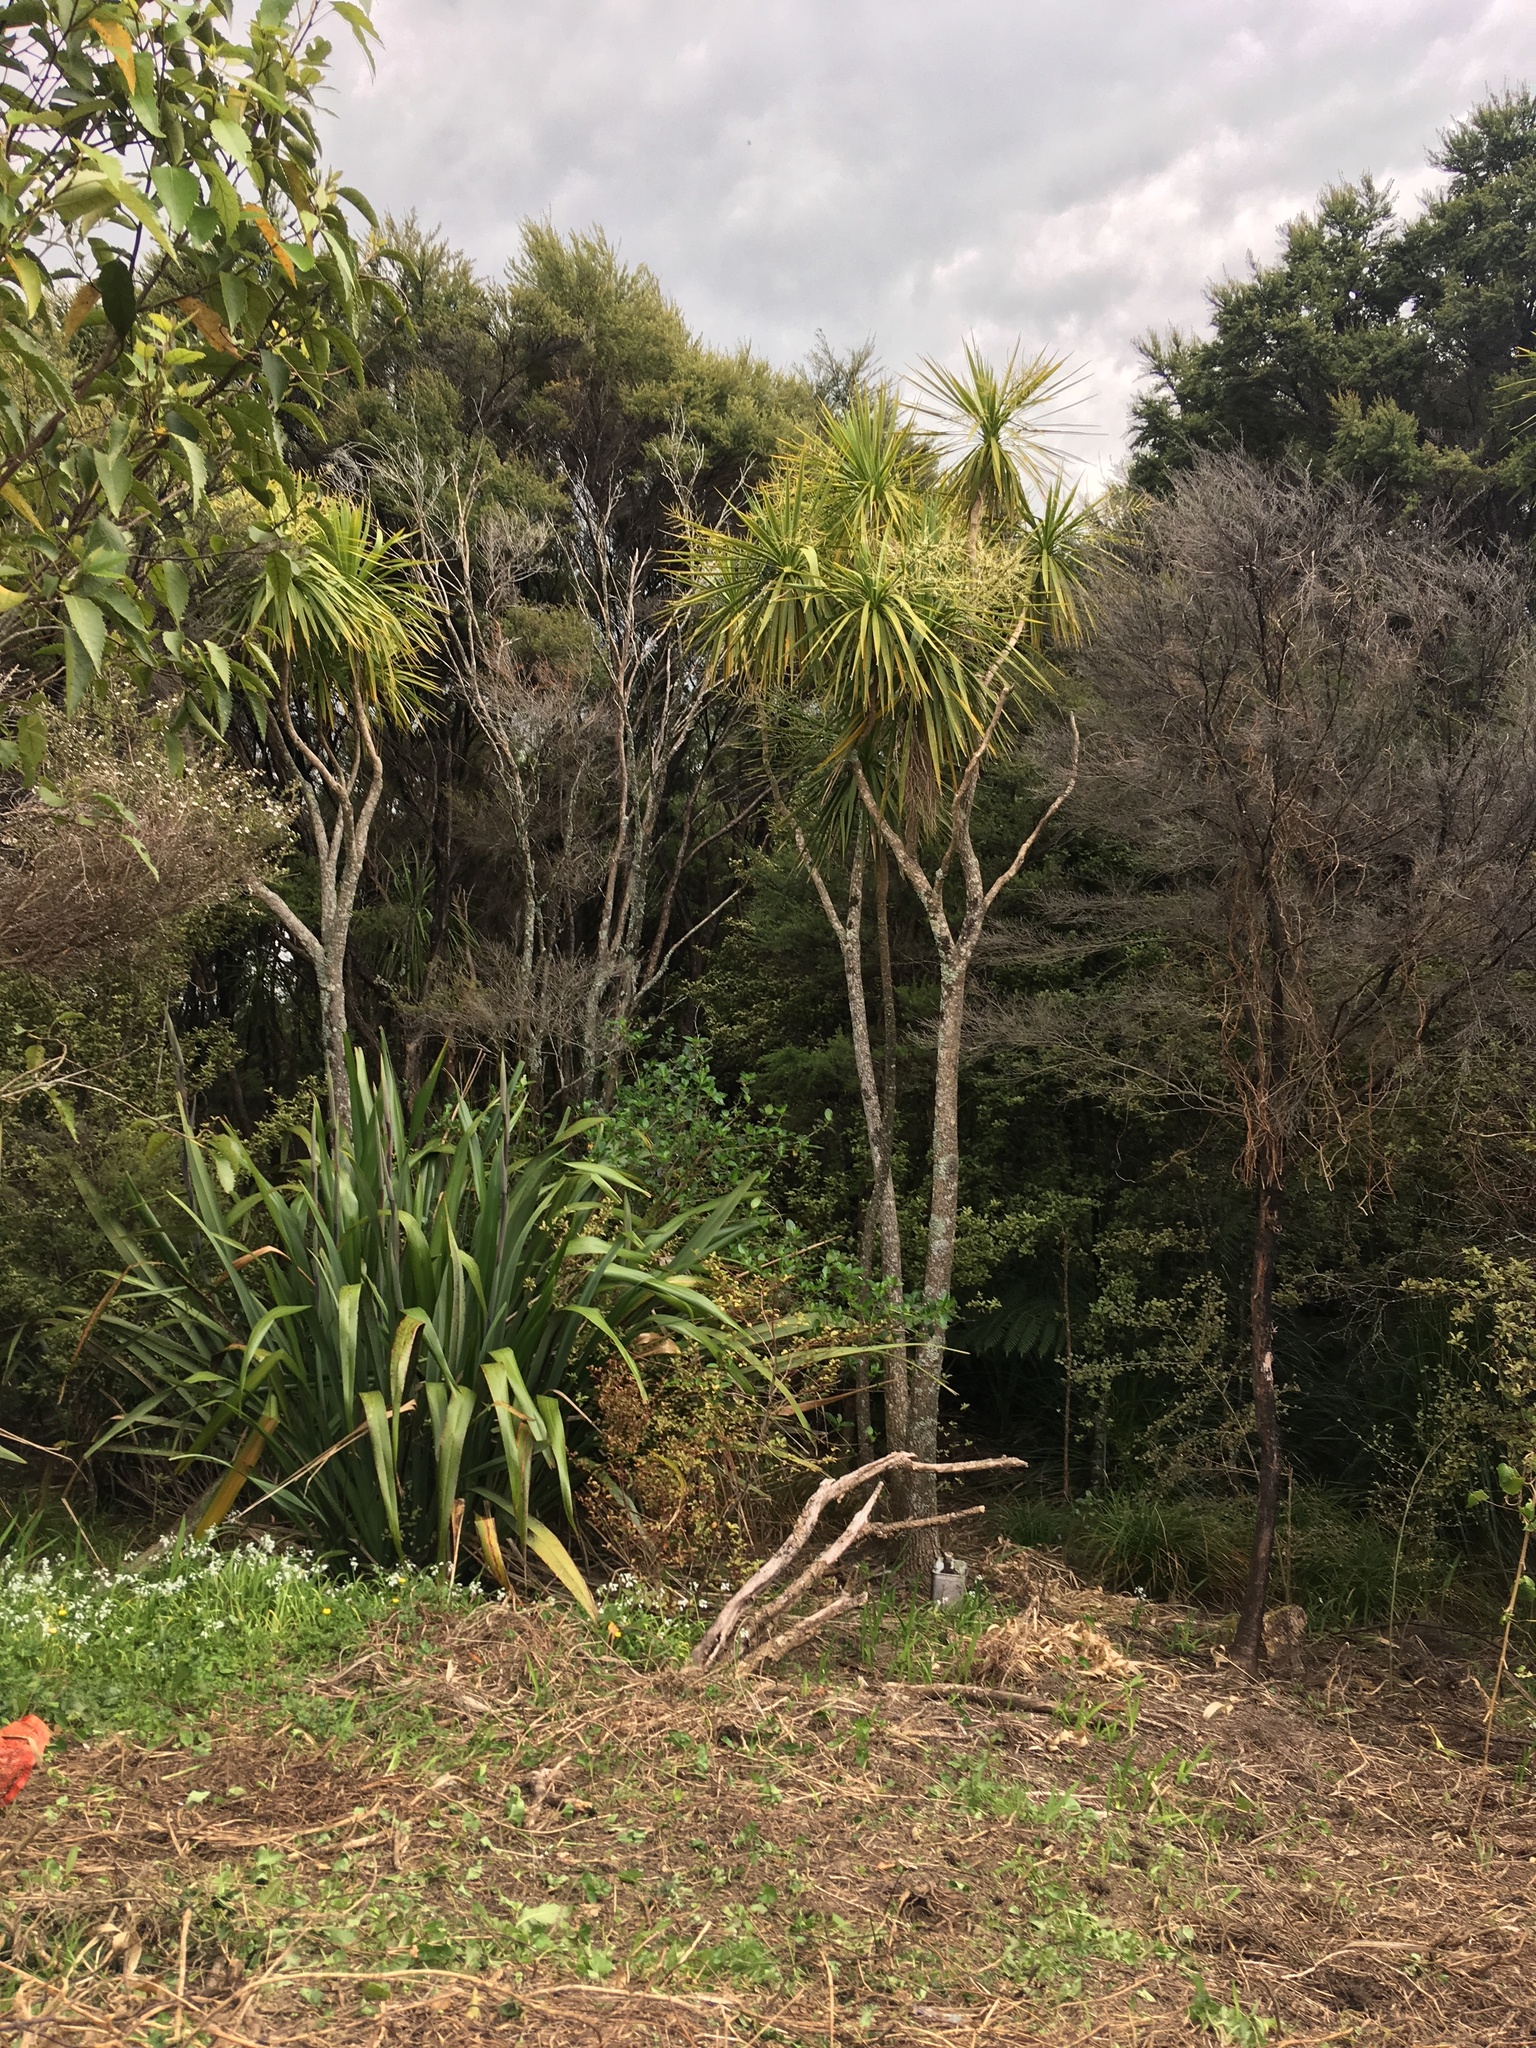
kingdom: Plantae
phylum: Tracheophyta
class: Liliopsida
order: Asparagales
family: Asparagaceae
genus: Cordyline
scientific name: Cordyline australis
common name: Cabbage-palm
